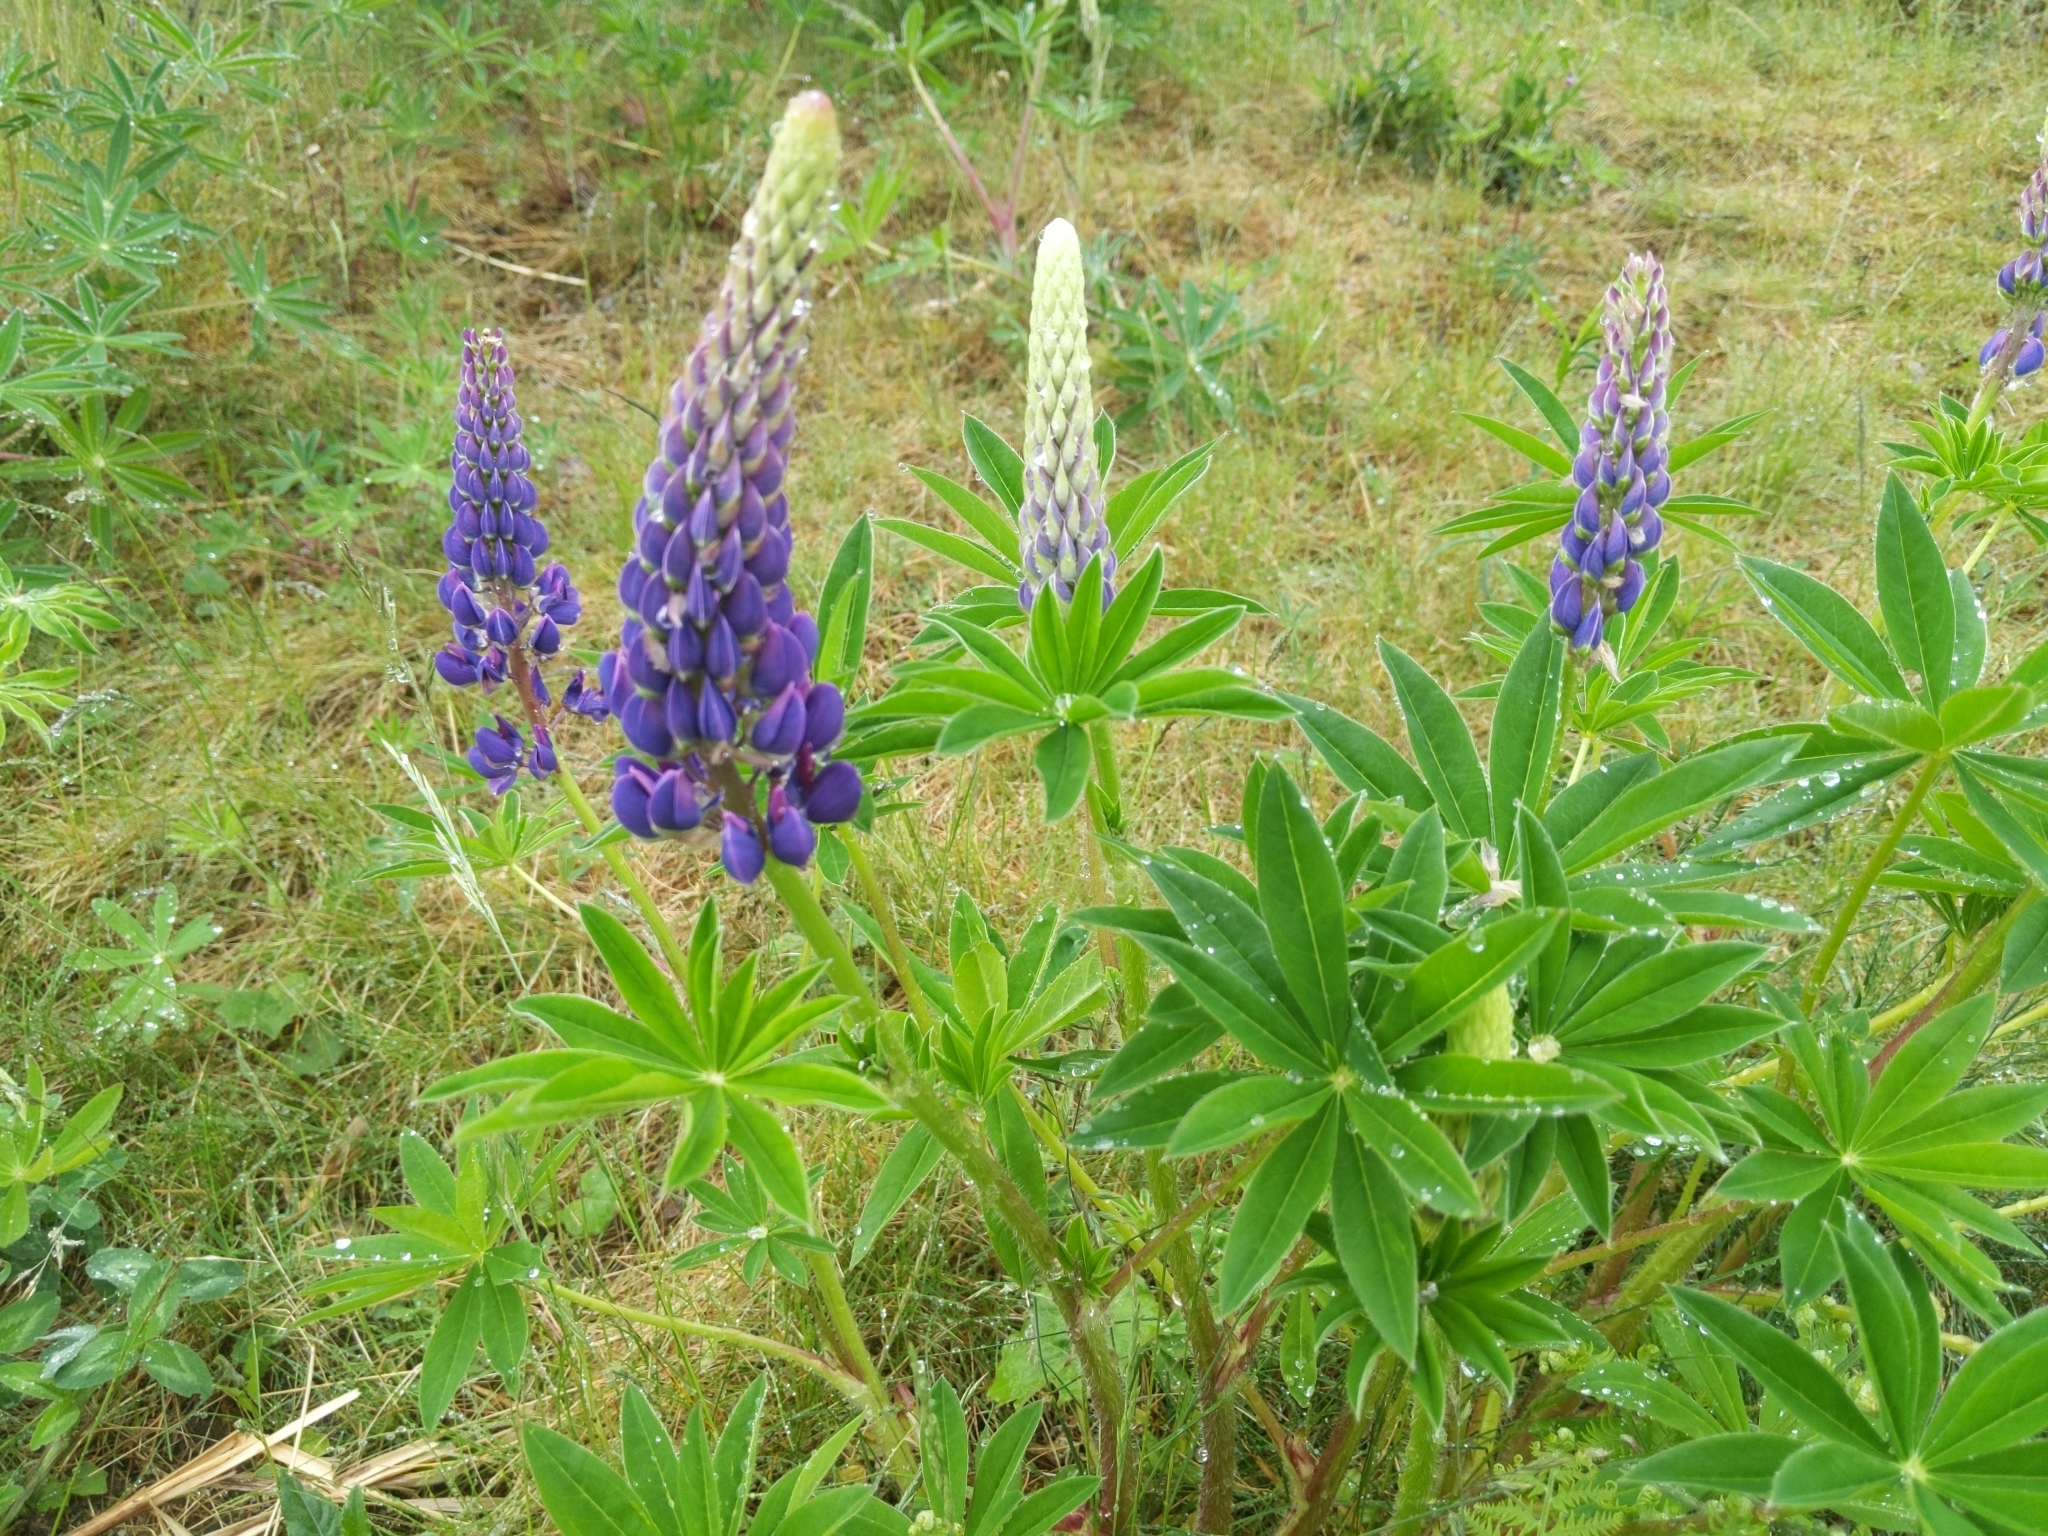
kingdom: Plantae
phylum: Tracheophyta
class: Magnoliopsida
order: Fabales
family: Fabaceae
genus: Lupinus
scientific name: Lupinus polyphyllus
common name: Garden lupin
